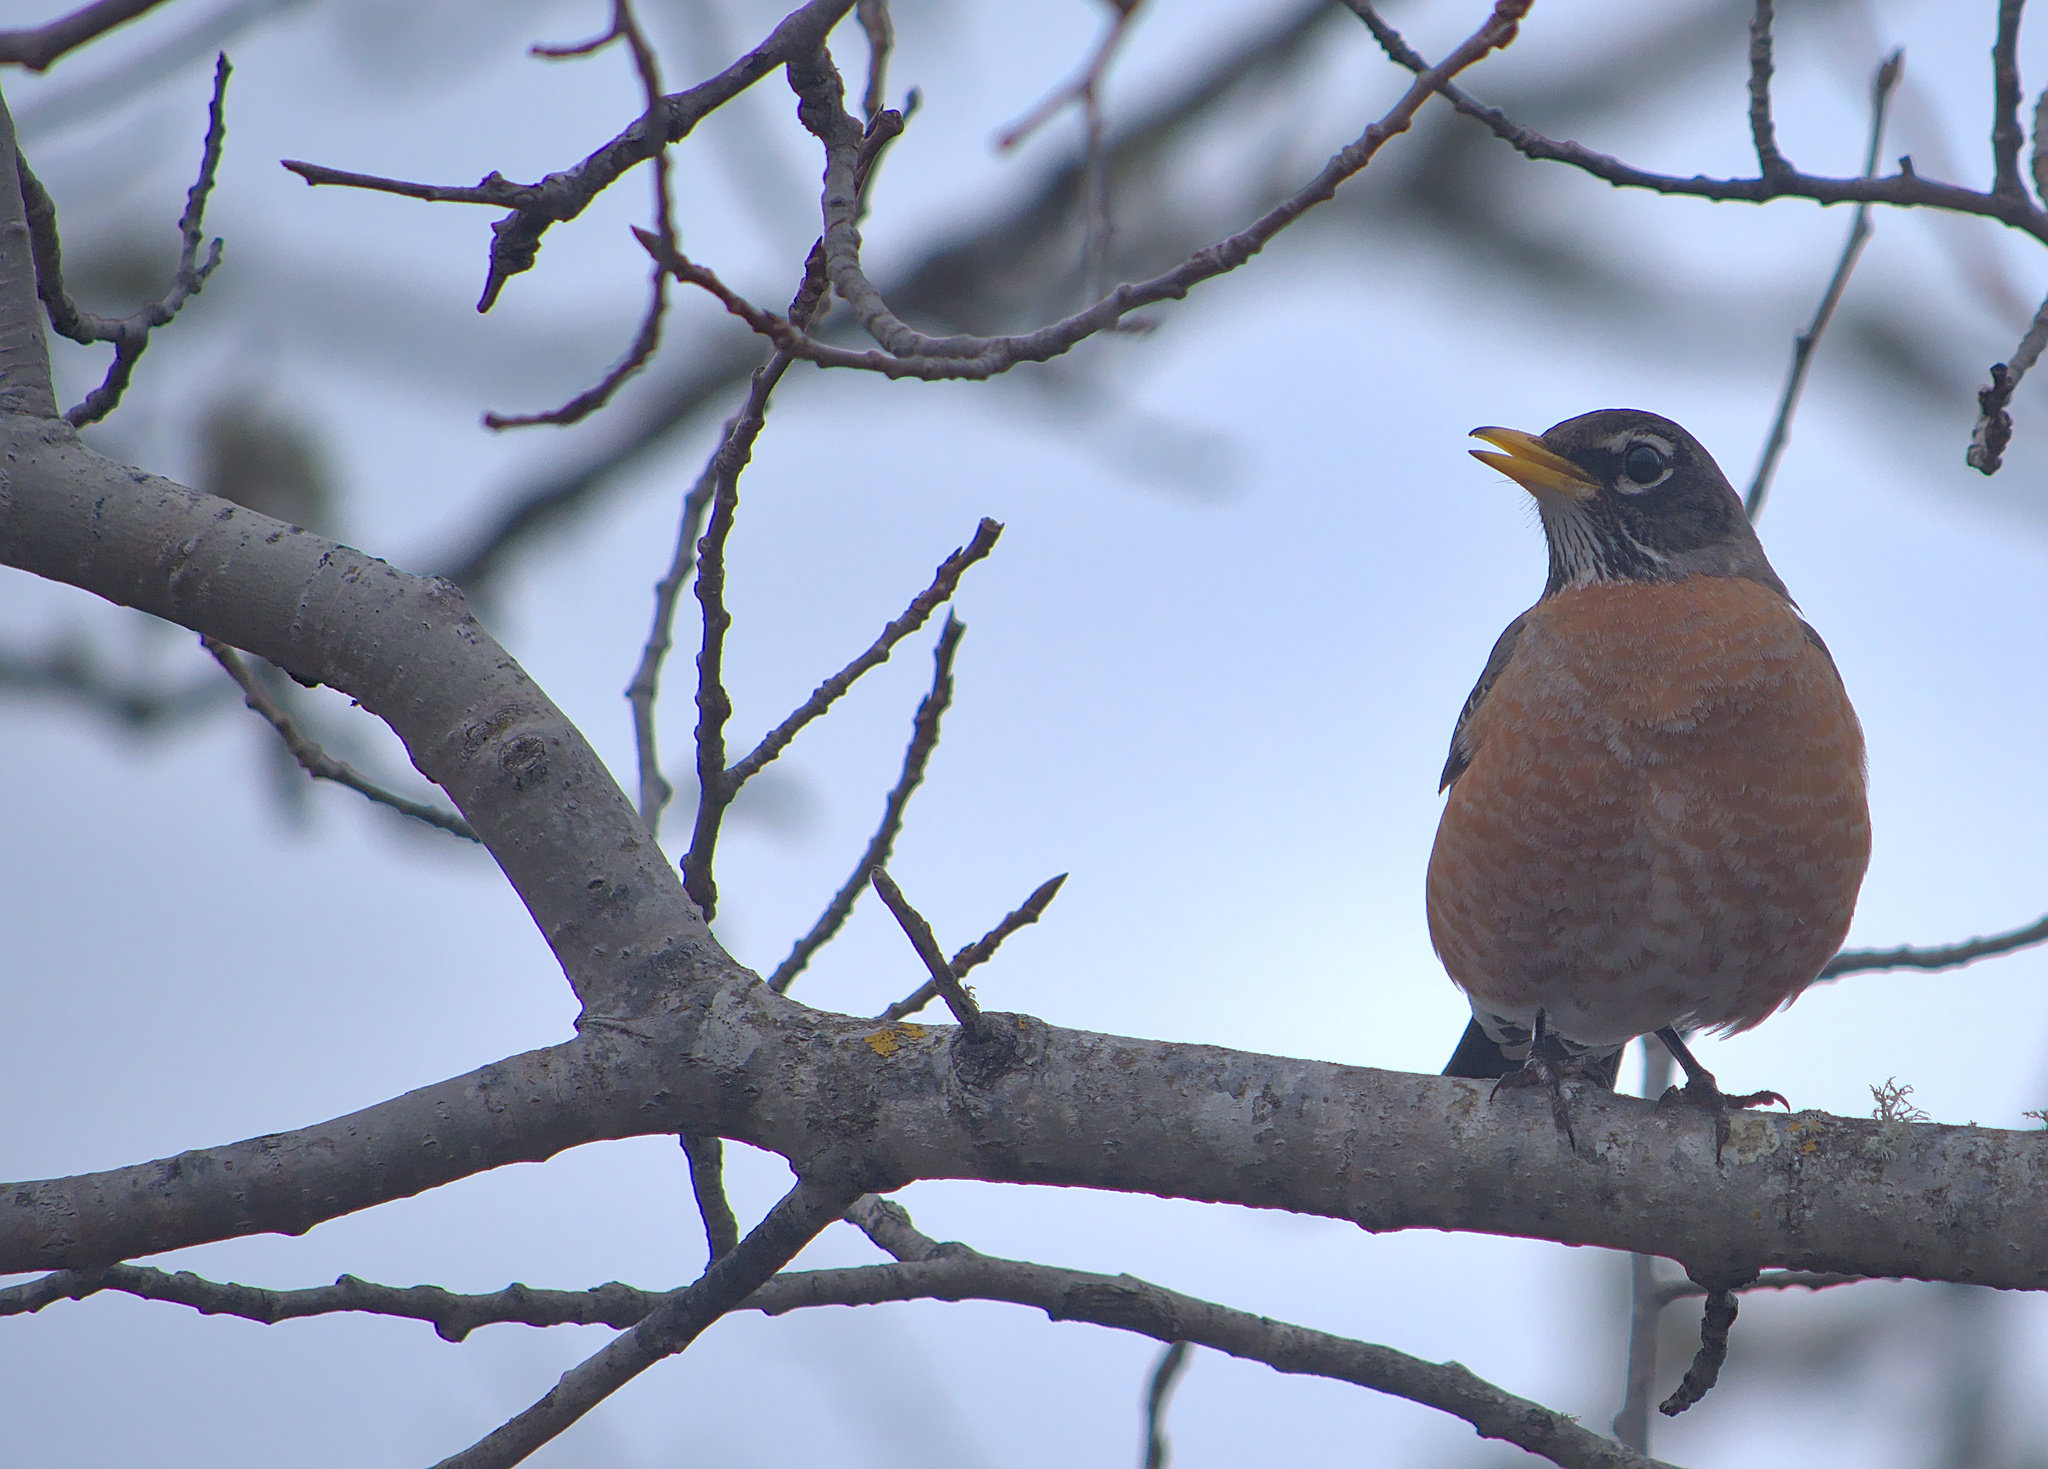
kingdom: Animalia
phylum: Chordata
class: Aves
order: Passeriformes
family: Turdidae
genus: Turdus
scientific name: Turdus migratorius
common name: American robin
